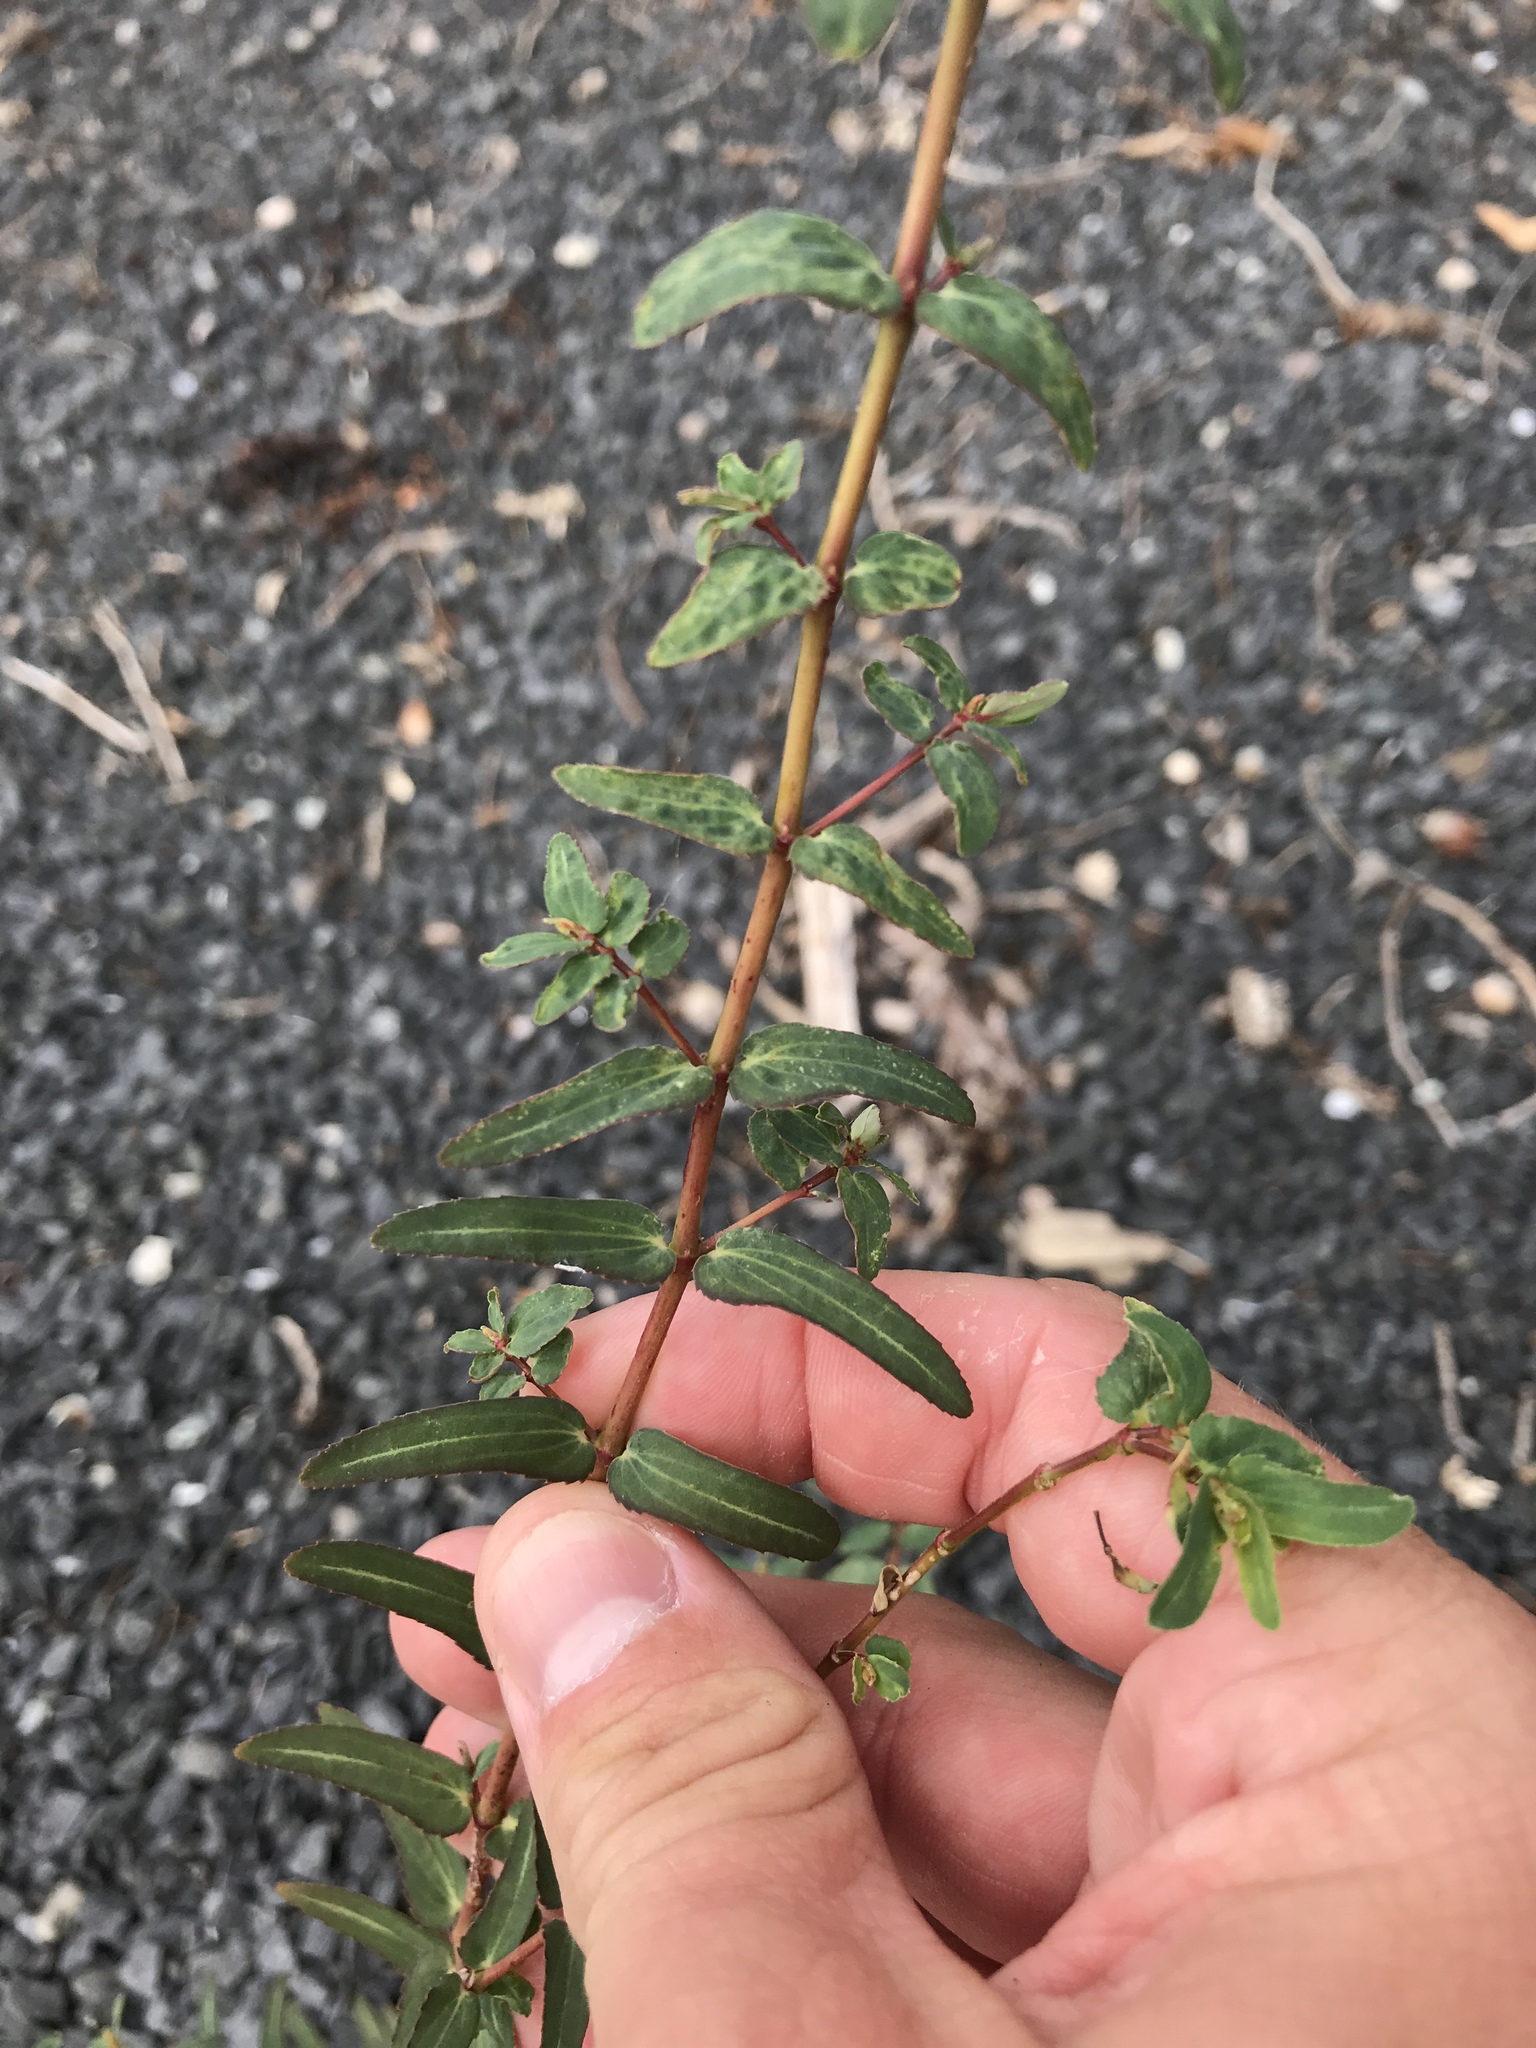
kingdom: Plantae
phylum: Tracheophyta
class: Magnoliopsida
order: Malpighiales
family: Euphorbiaceae
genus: Euphorbia
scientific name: Euphorbia nutans
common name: Eyebane
